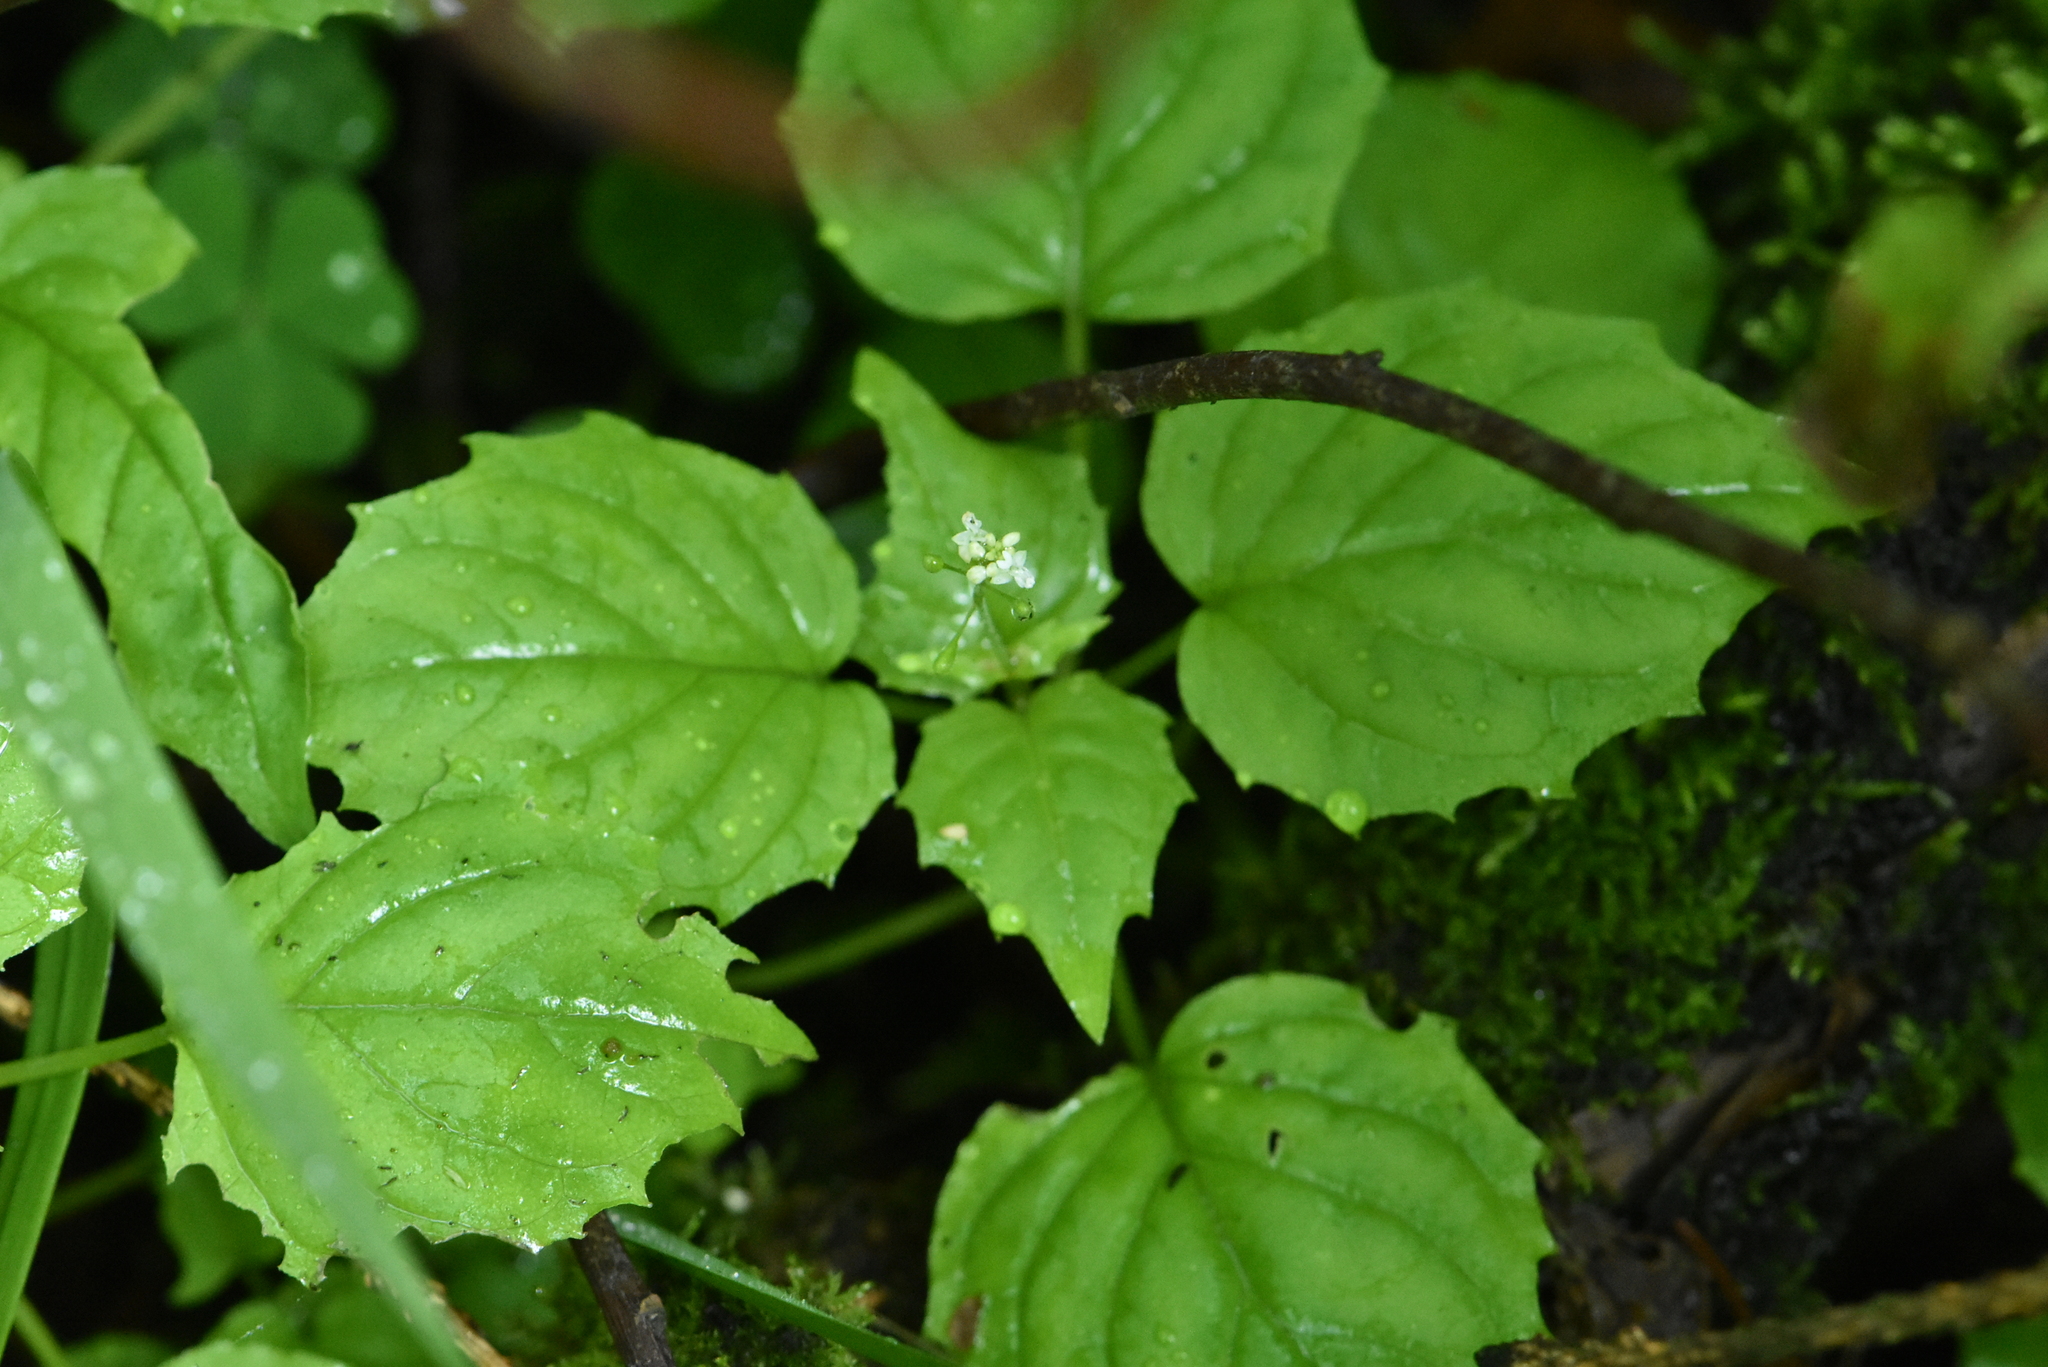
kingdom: Plantae
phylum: Tracheophyta
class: Magnoliopsida
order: Myrtales
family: Onagraceae
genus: Circaea
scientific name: Circaea alpina
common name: Alpine enchanter's-nightshade
